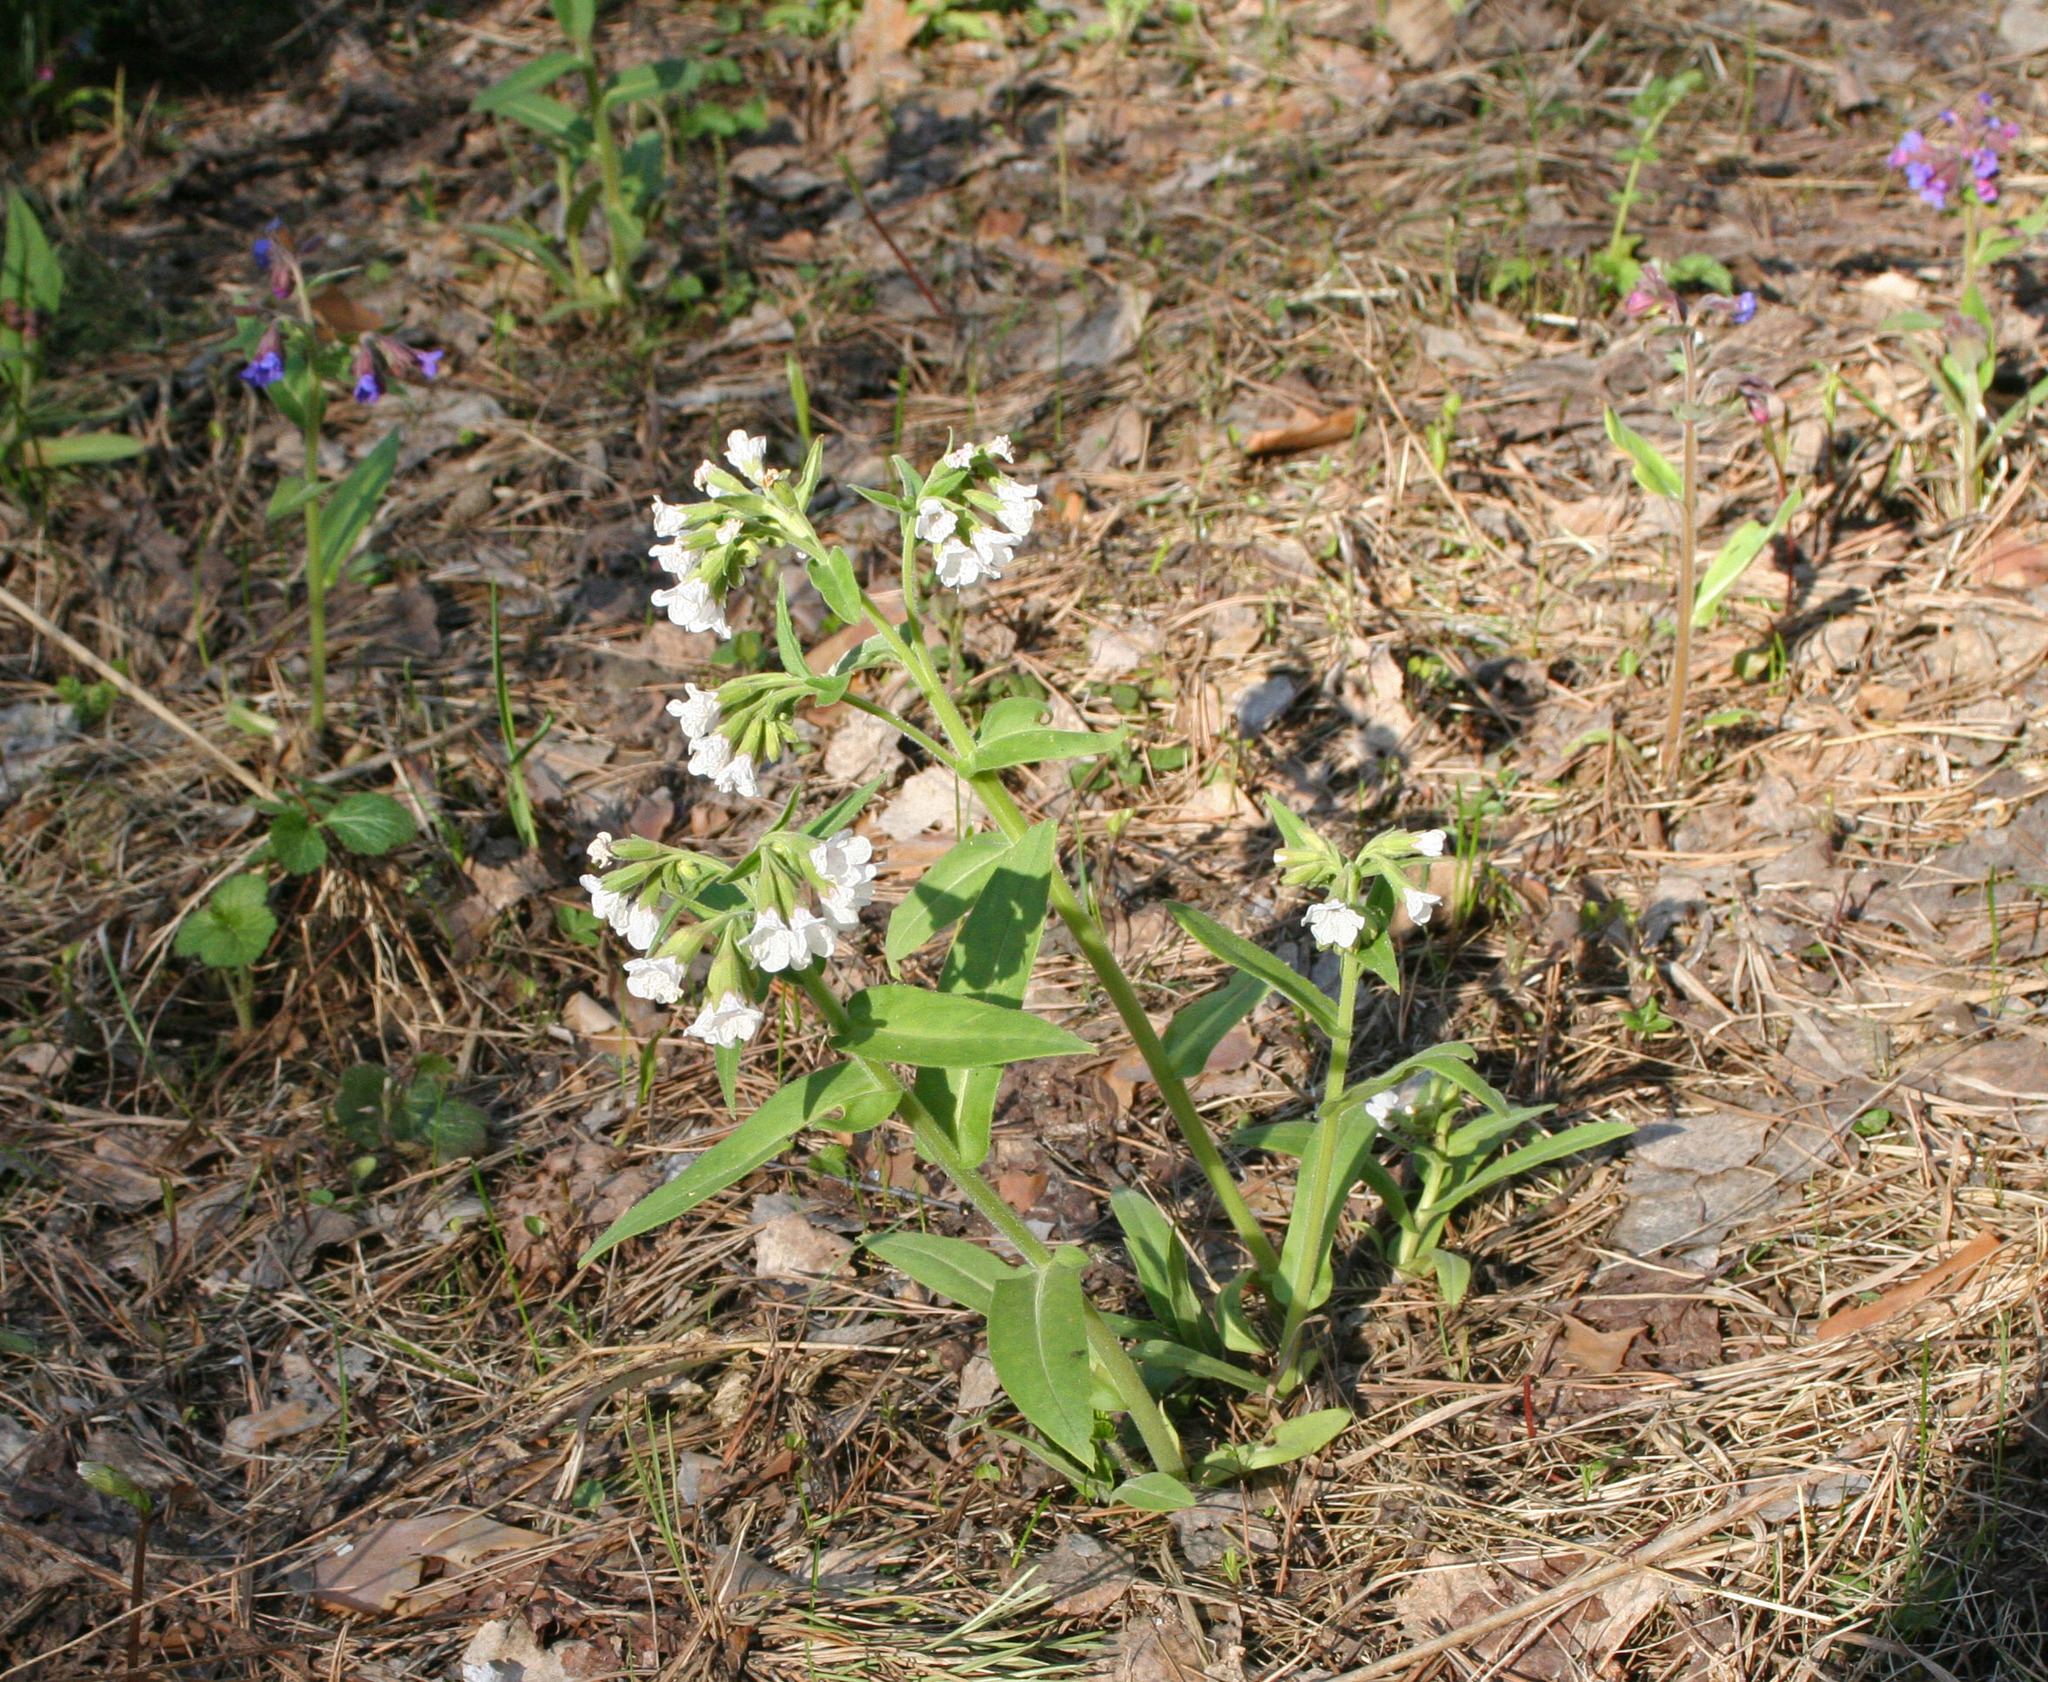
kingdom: Plantae
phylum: Tracheophyta
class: Magnoliopsida
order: Boraginales
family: Boraginaceae
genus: Pulmonaria
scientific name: Pulmonaria mollis
